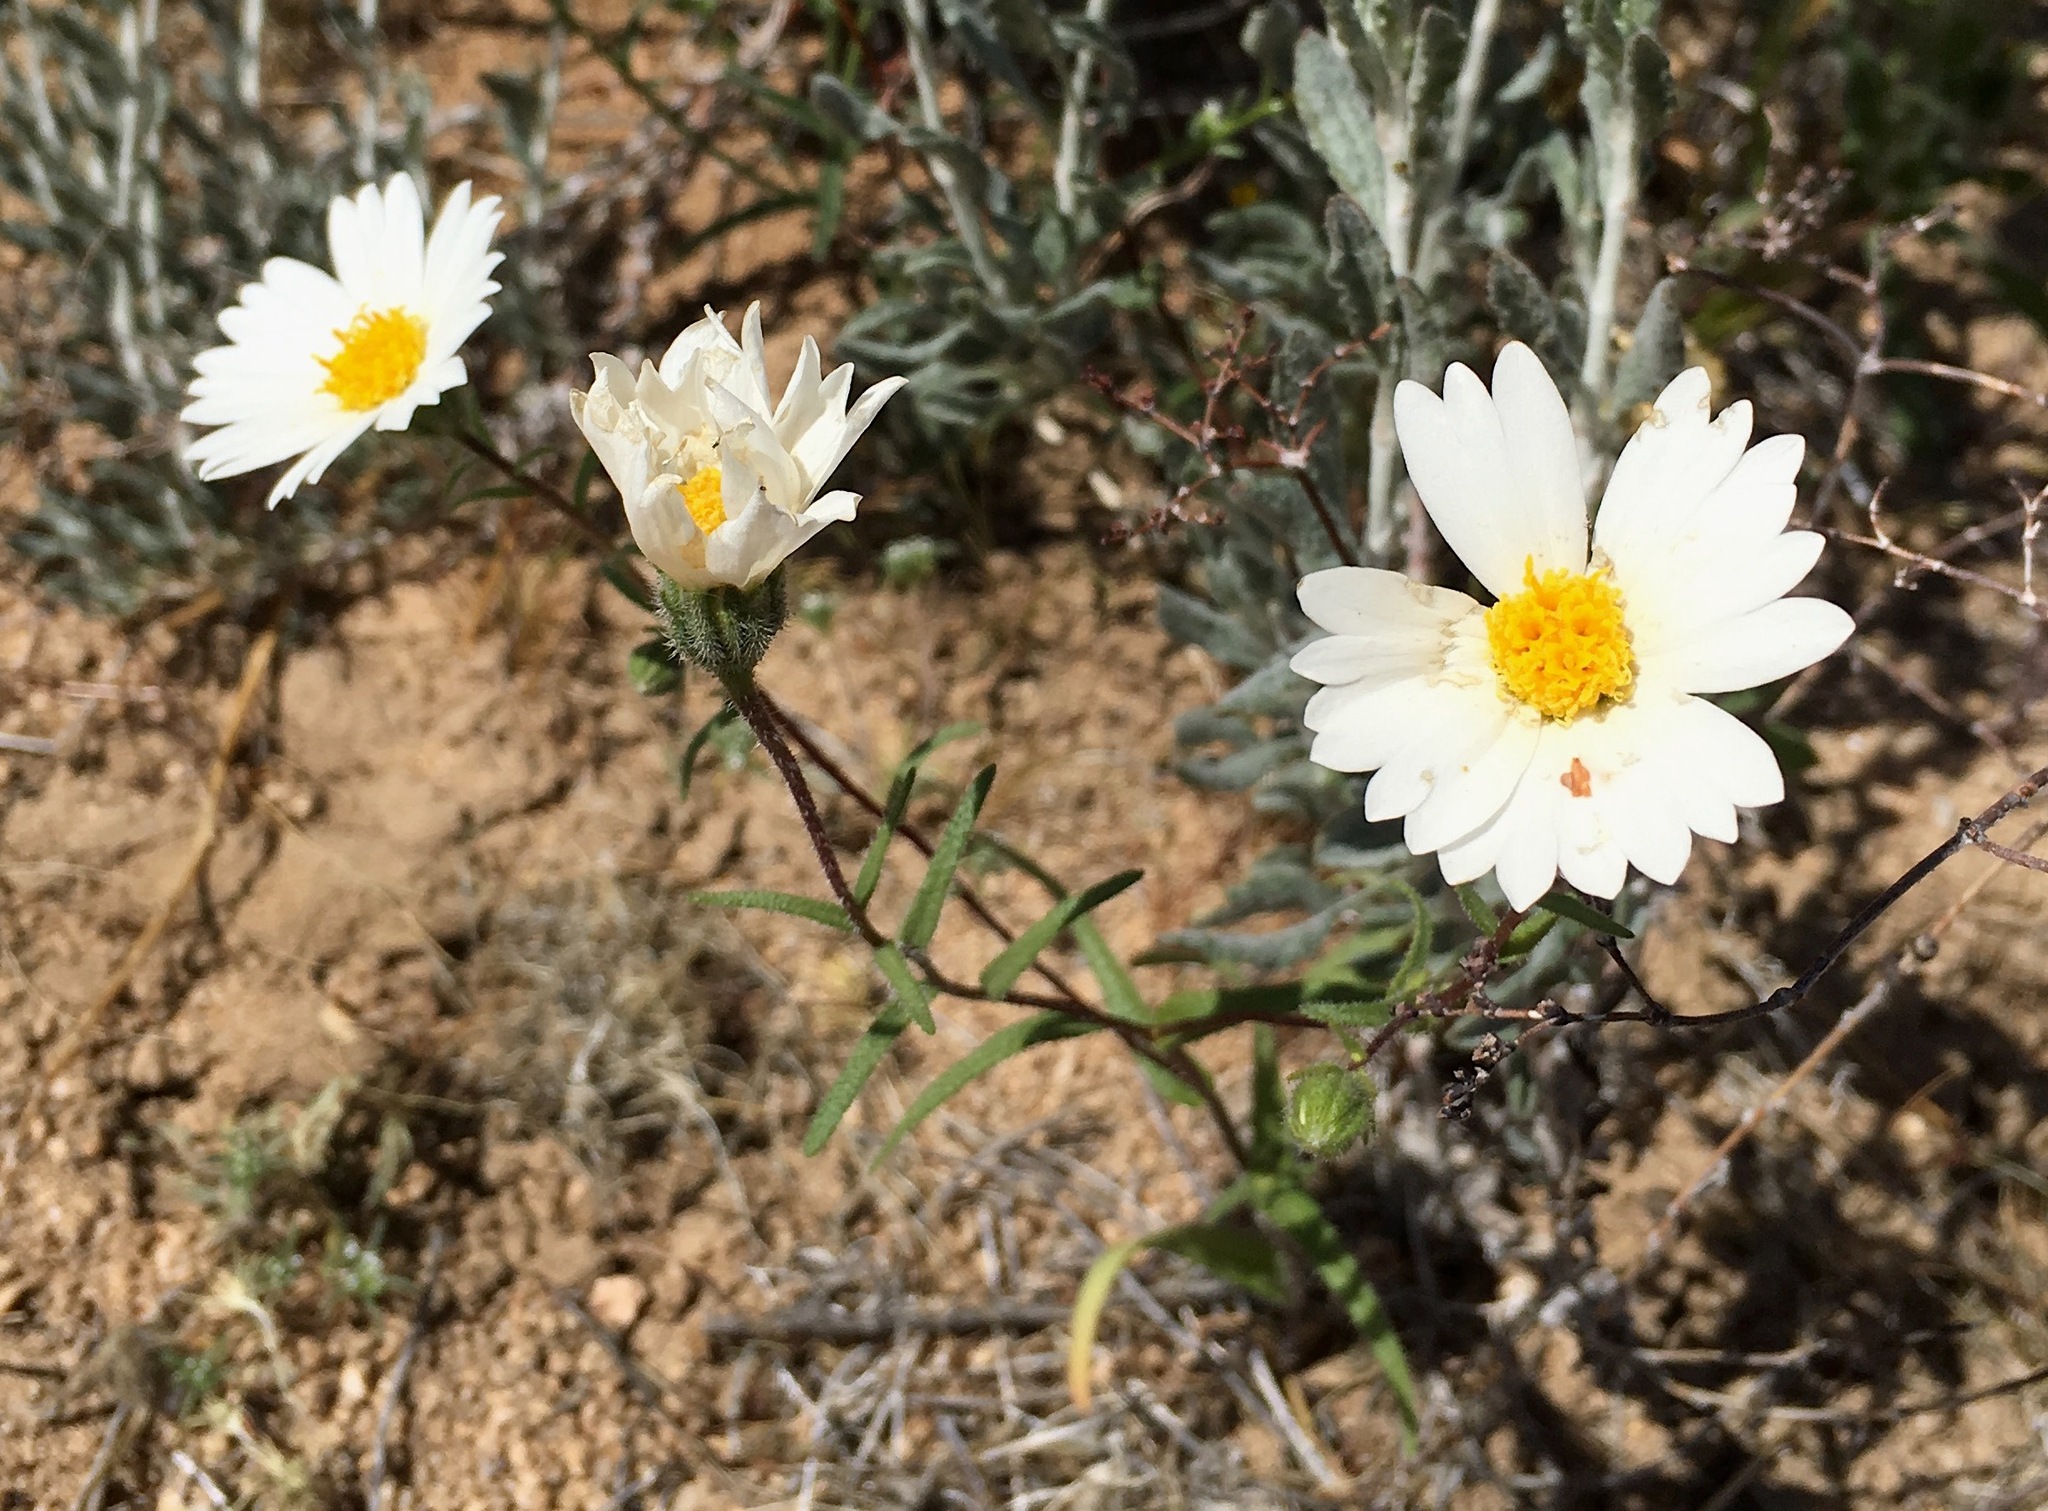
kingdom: Plantae
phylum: Tracheophyta
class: Magnoliopsida
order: Asterales
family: Asteraceae
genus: Layia
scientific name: Layia glandulosa
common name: White layia
